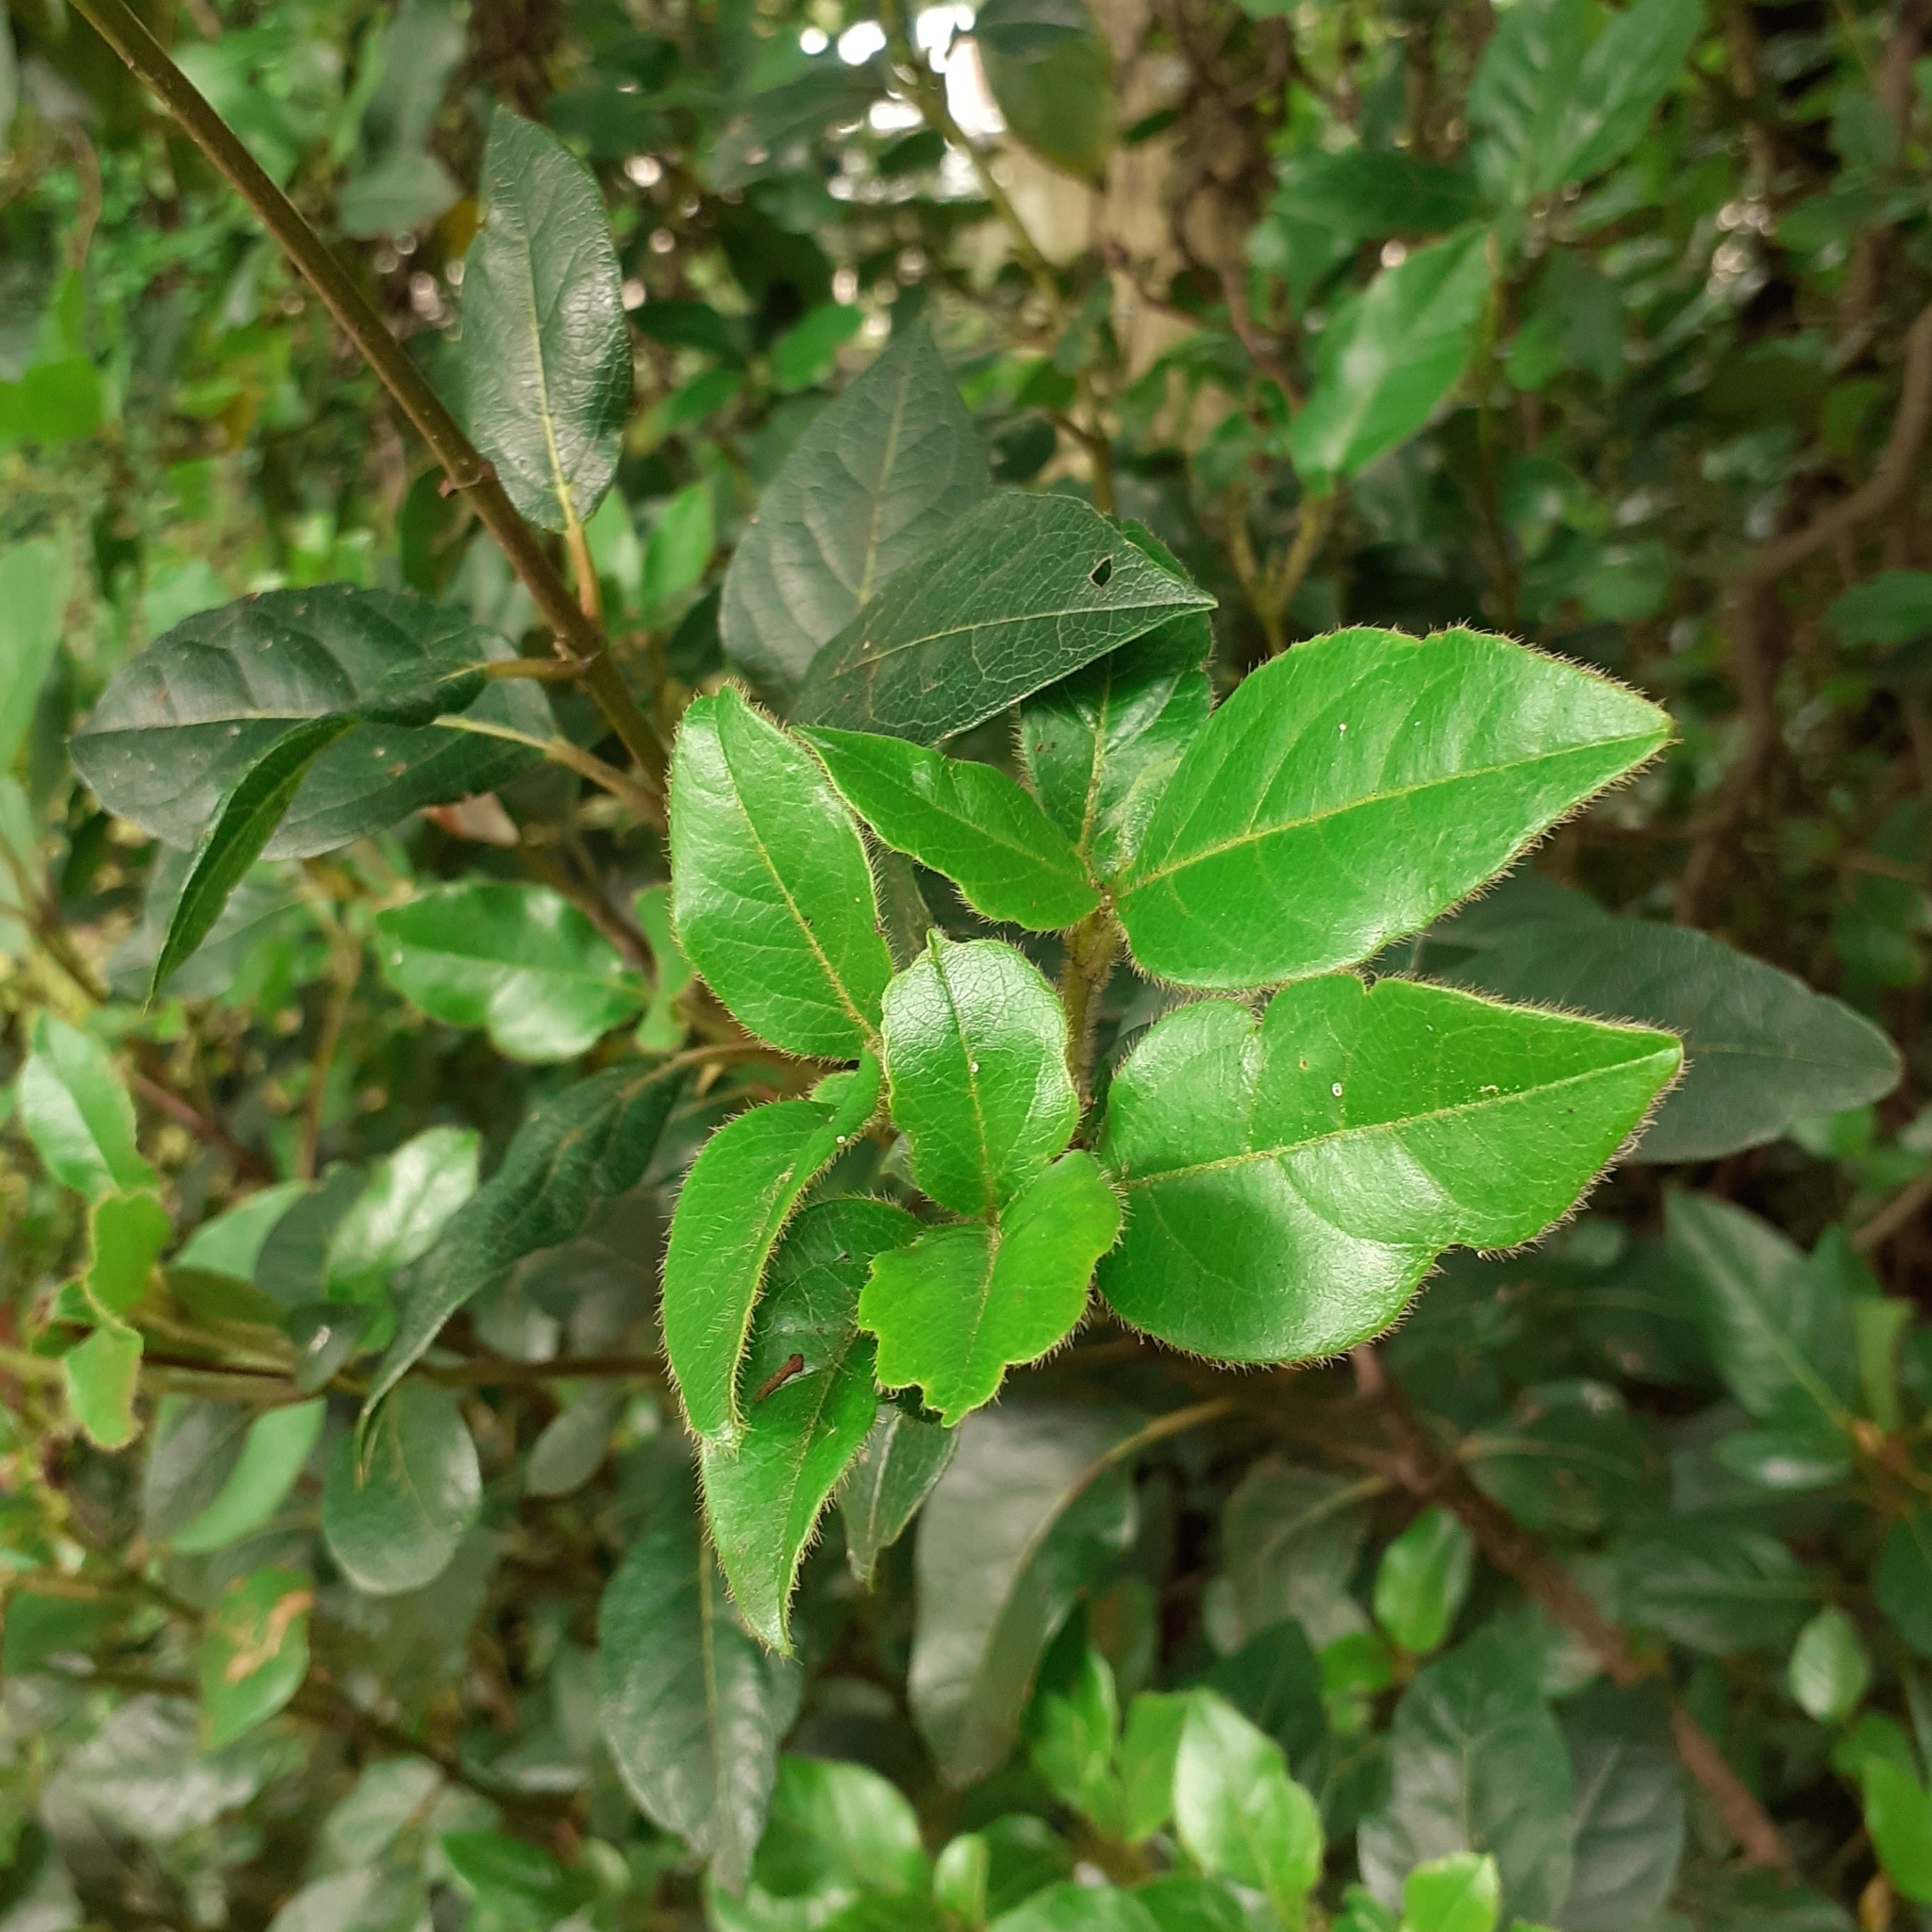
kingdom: Plantae
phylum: Tracheophyta
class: Magnoliopsida
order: Dipsacales
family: Viburnaceae
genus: Viburnum
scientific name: Viburnum tinus
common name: Laurustinus
